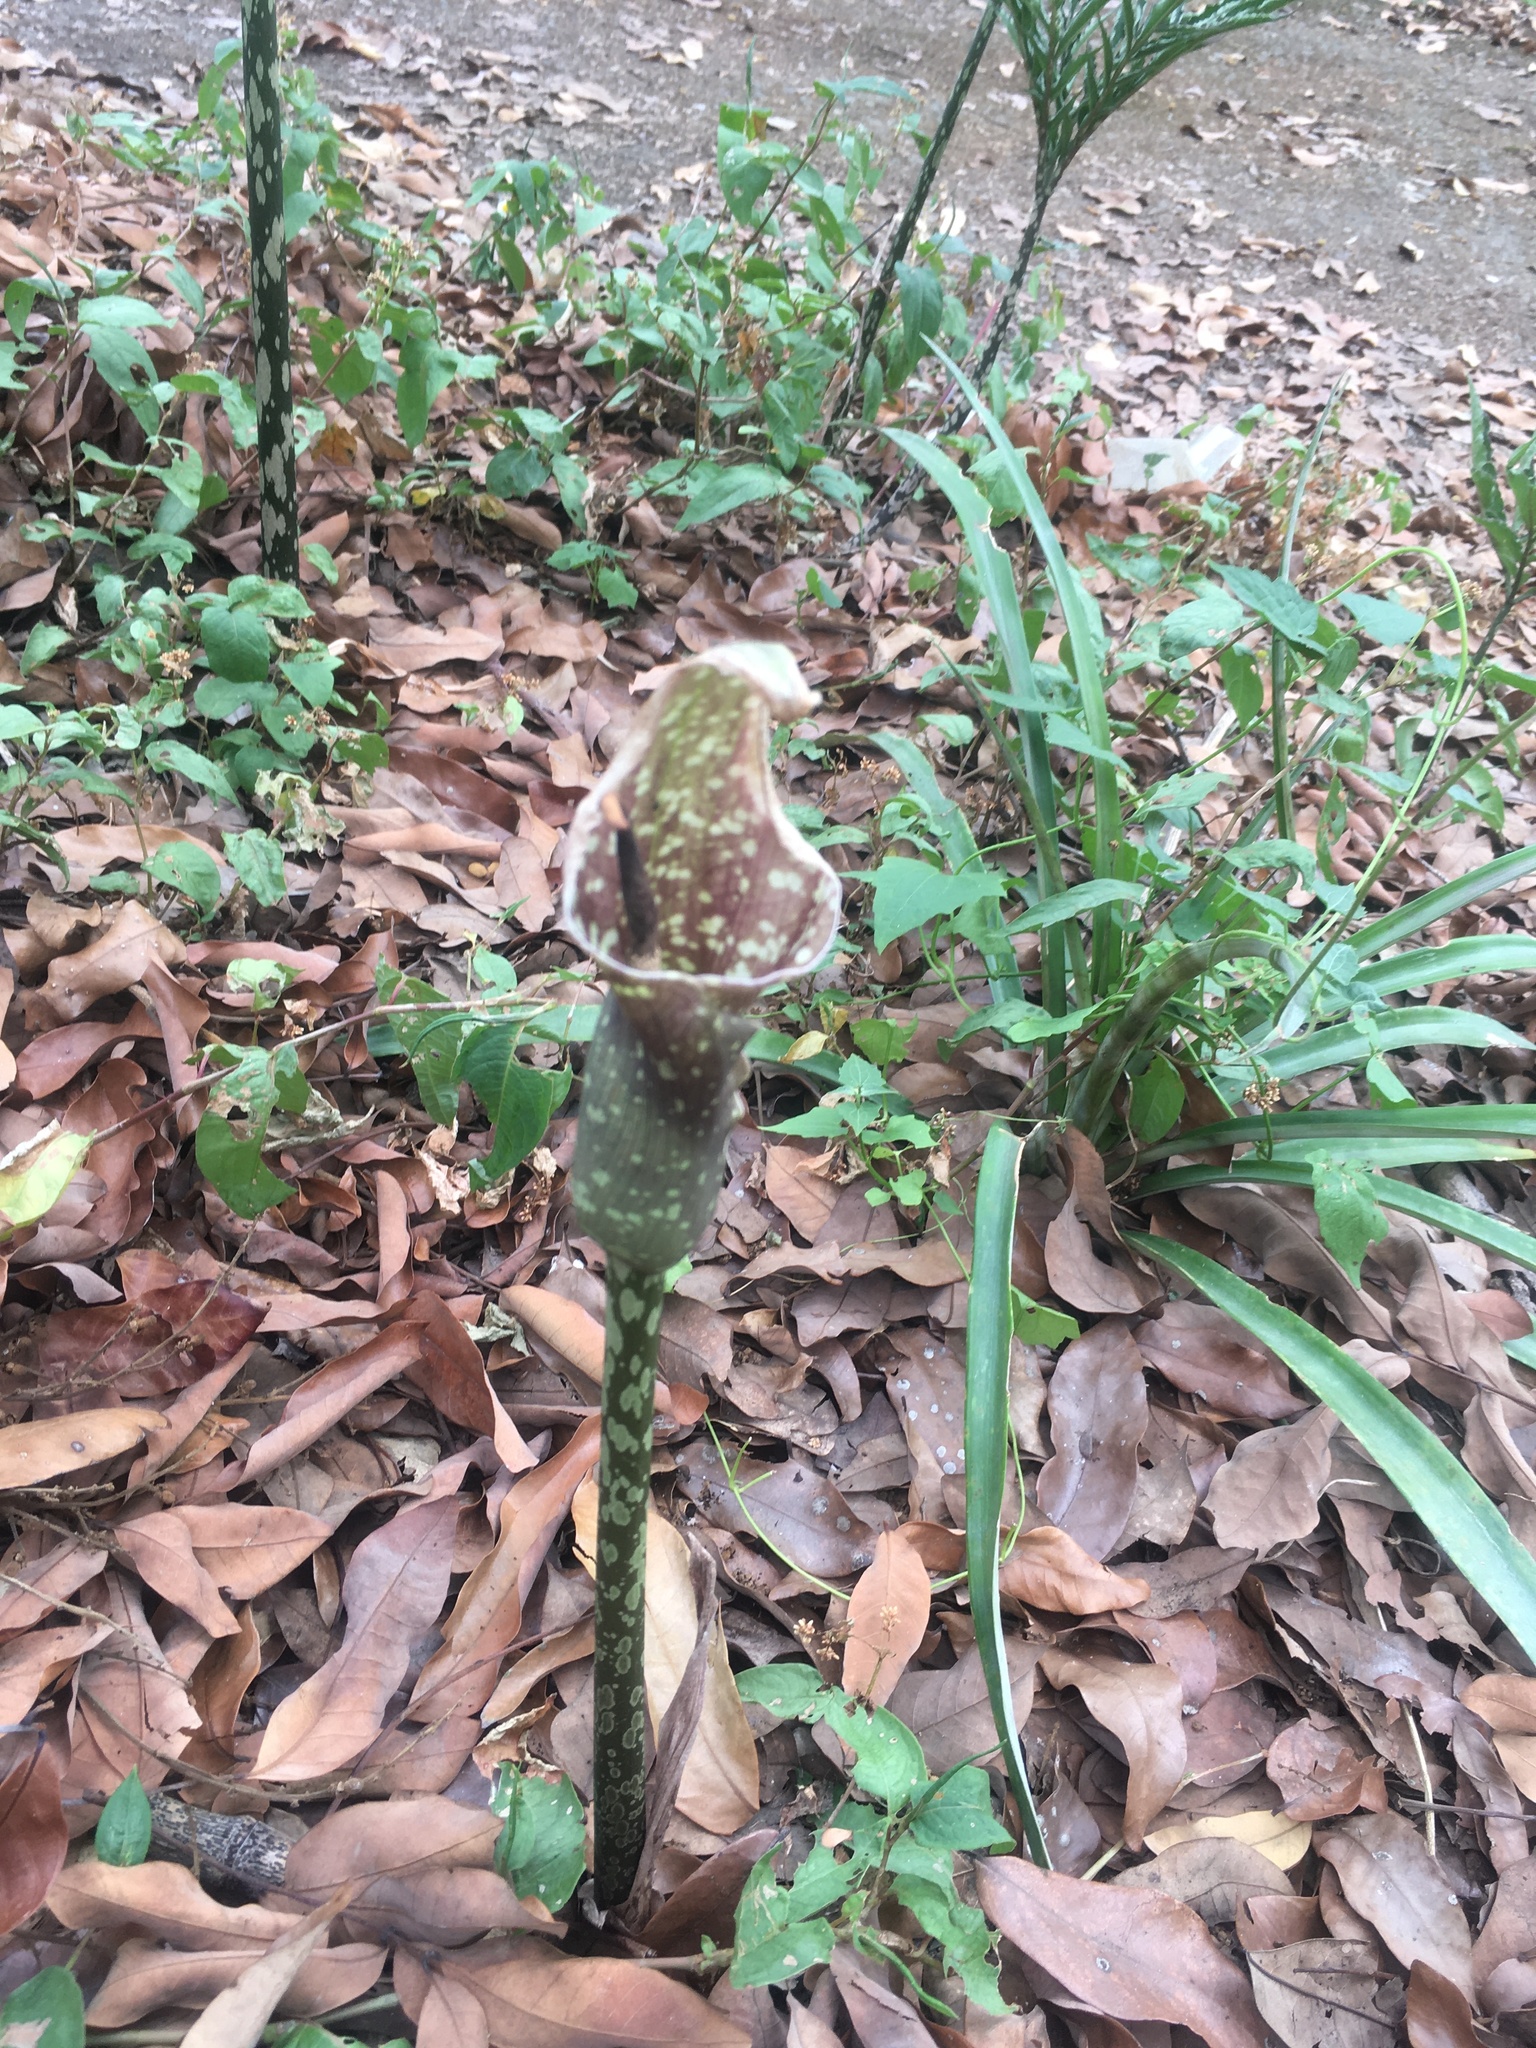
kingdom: Plantae
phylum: Tracheophyta
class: Liliopsida
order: Alismatales
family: Araceae
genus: Amorphophallus
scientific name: Amorphophallus kiusianus
